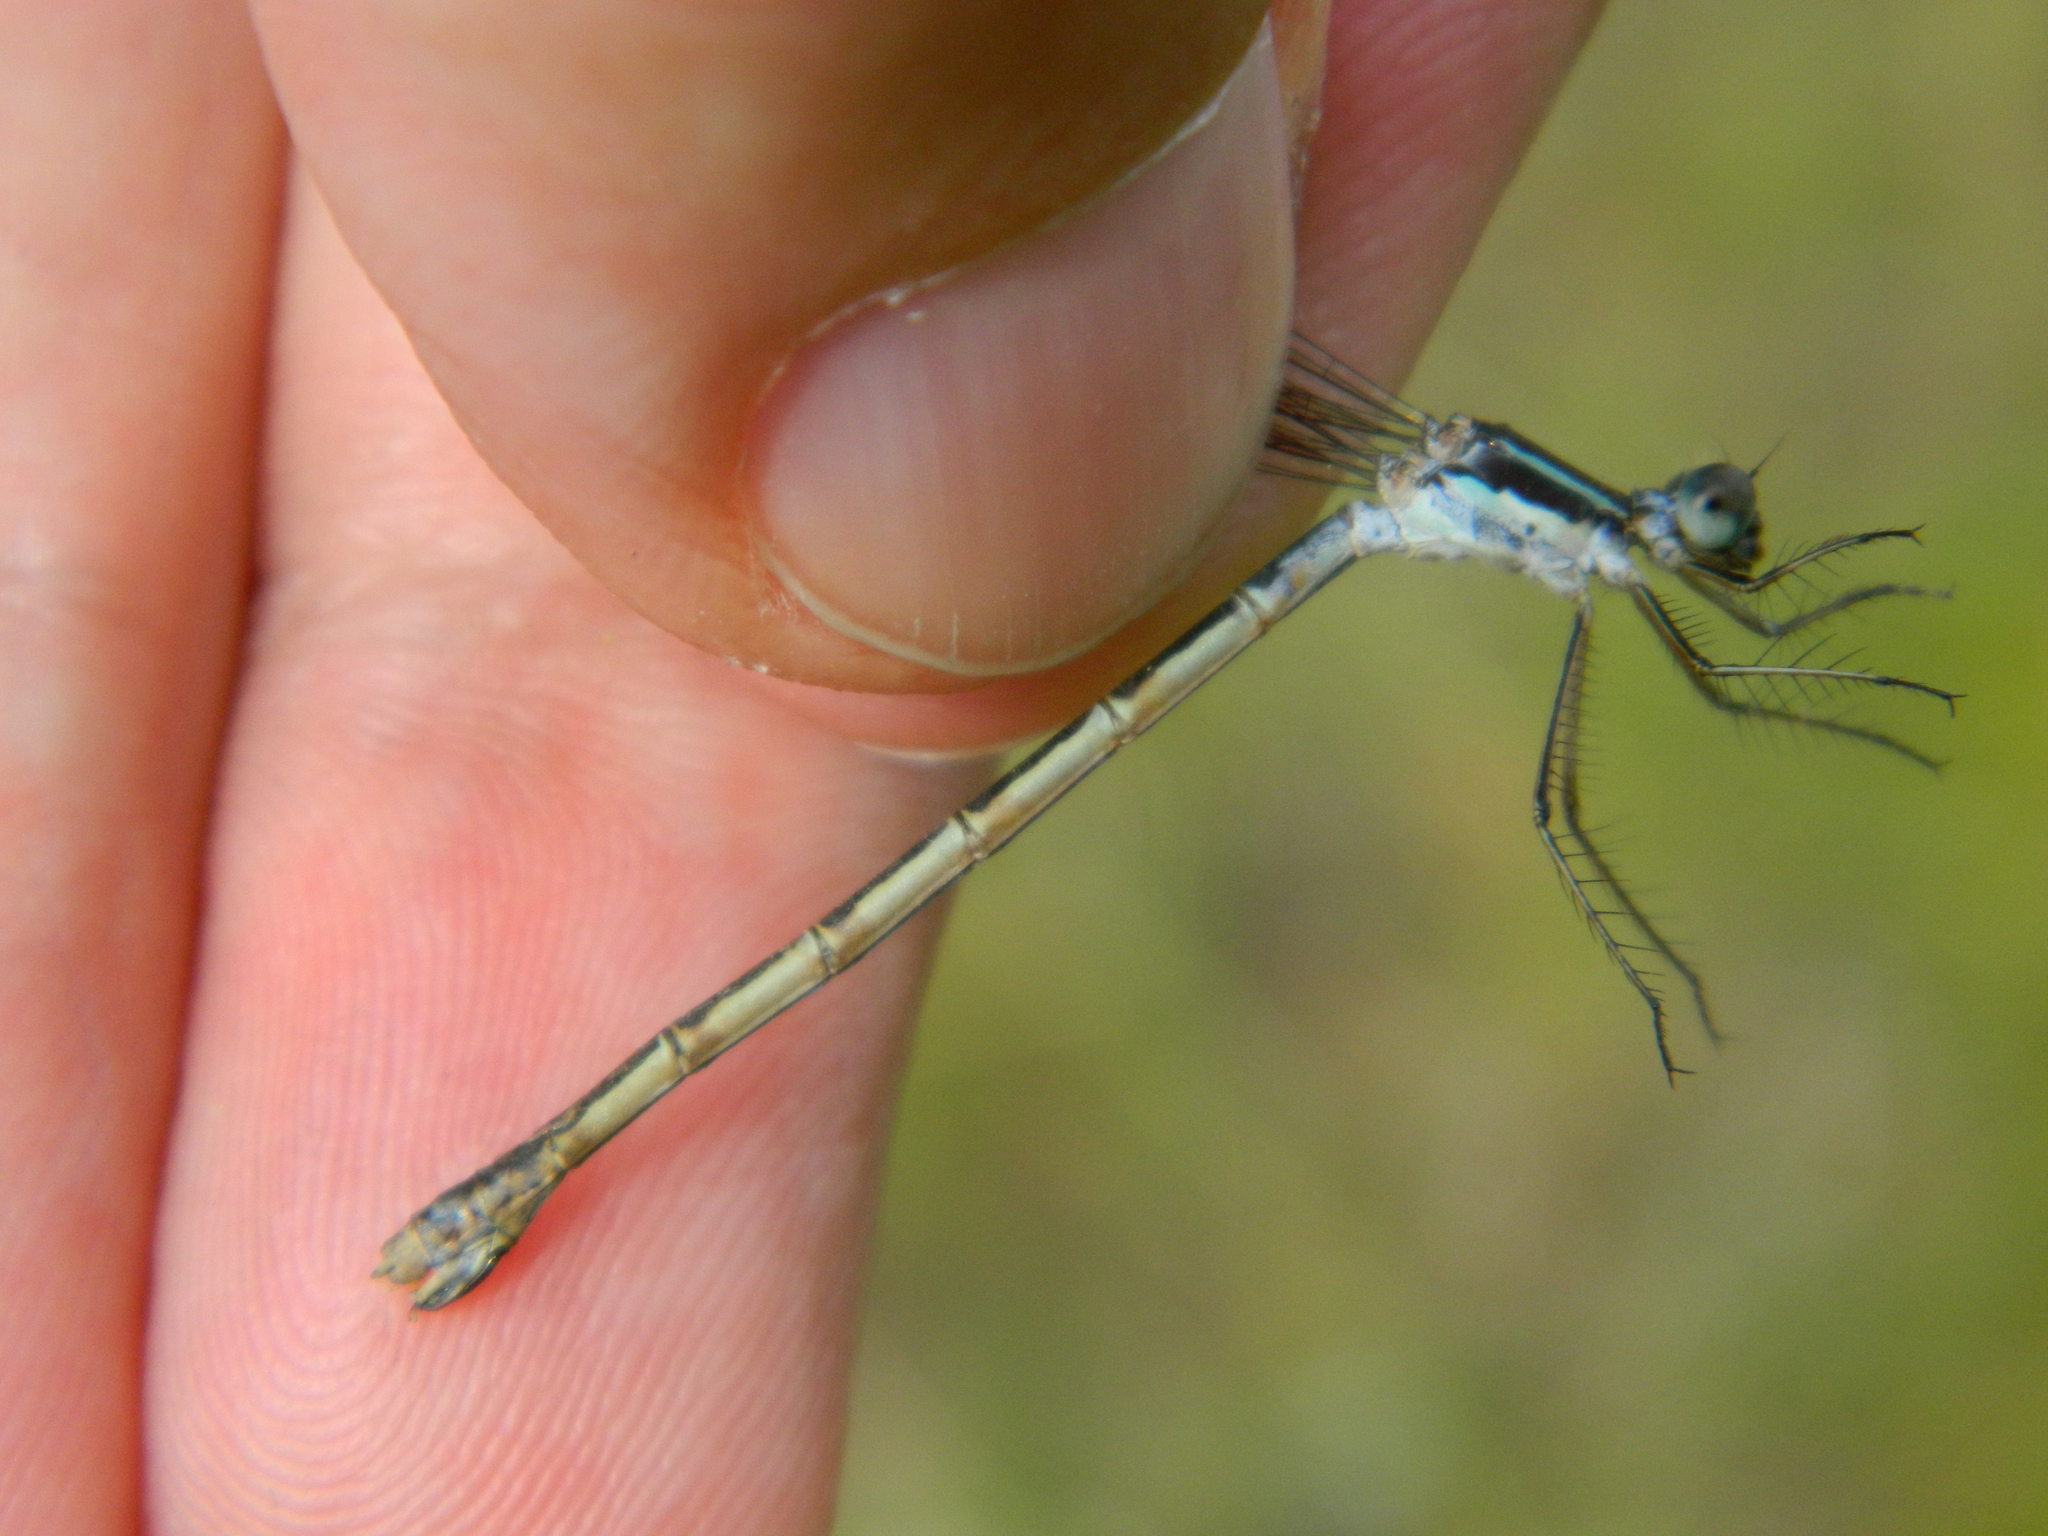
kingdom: Animalia
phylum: Arthropoda
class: Insecta
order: Odonata
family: Lestidae
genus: Lestes
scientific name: Lestes disjunctus
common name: Northern spreadwing
